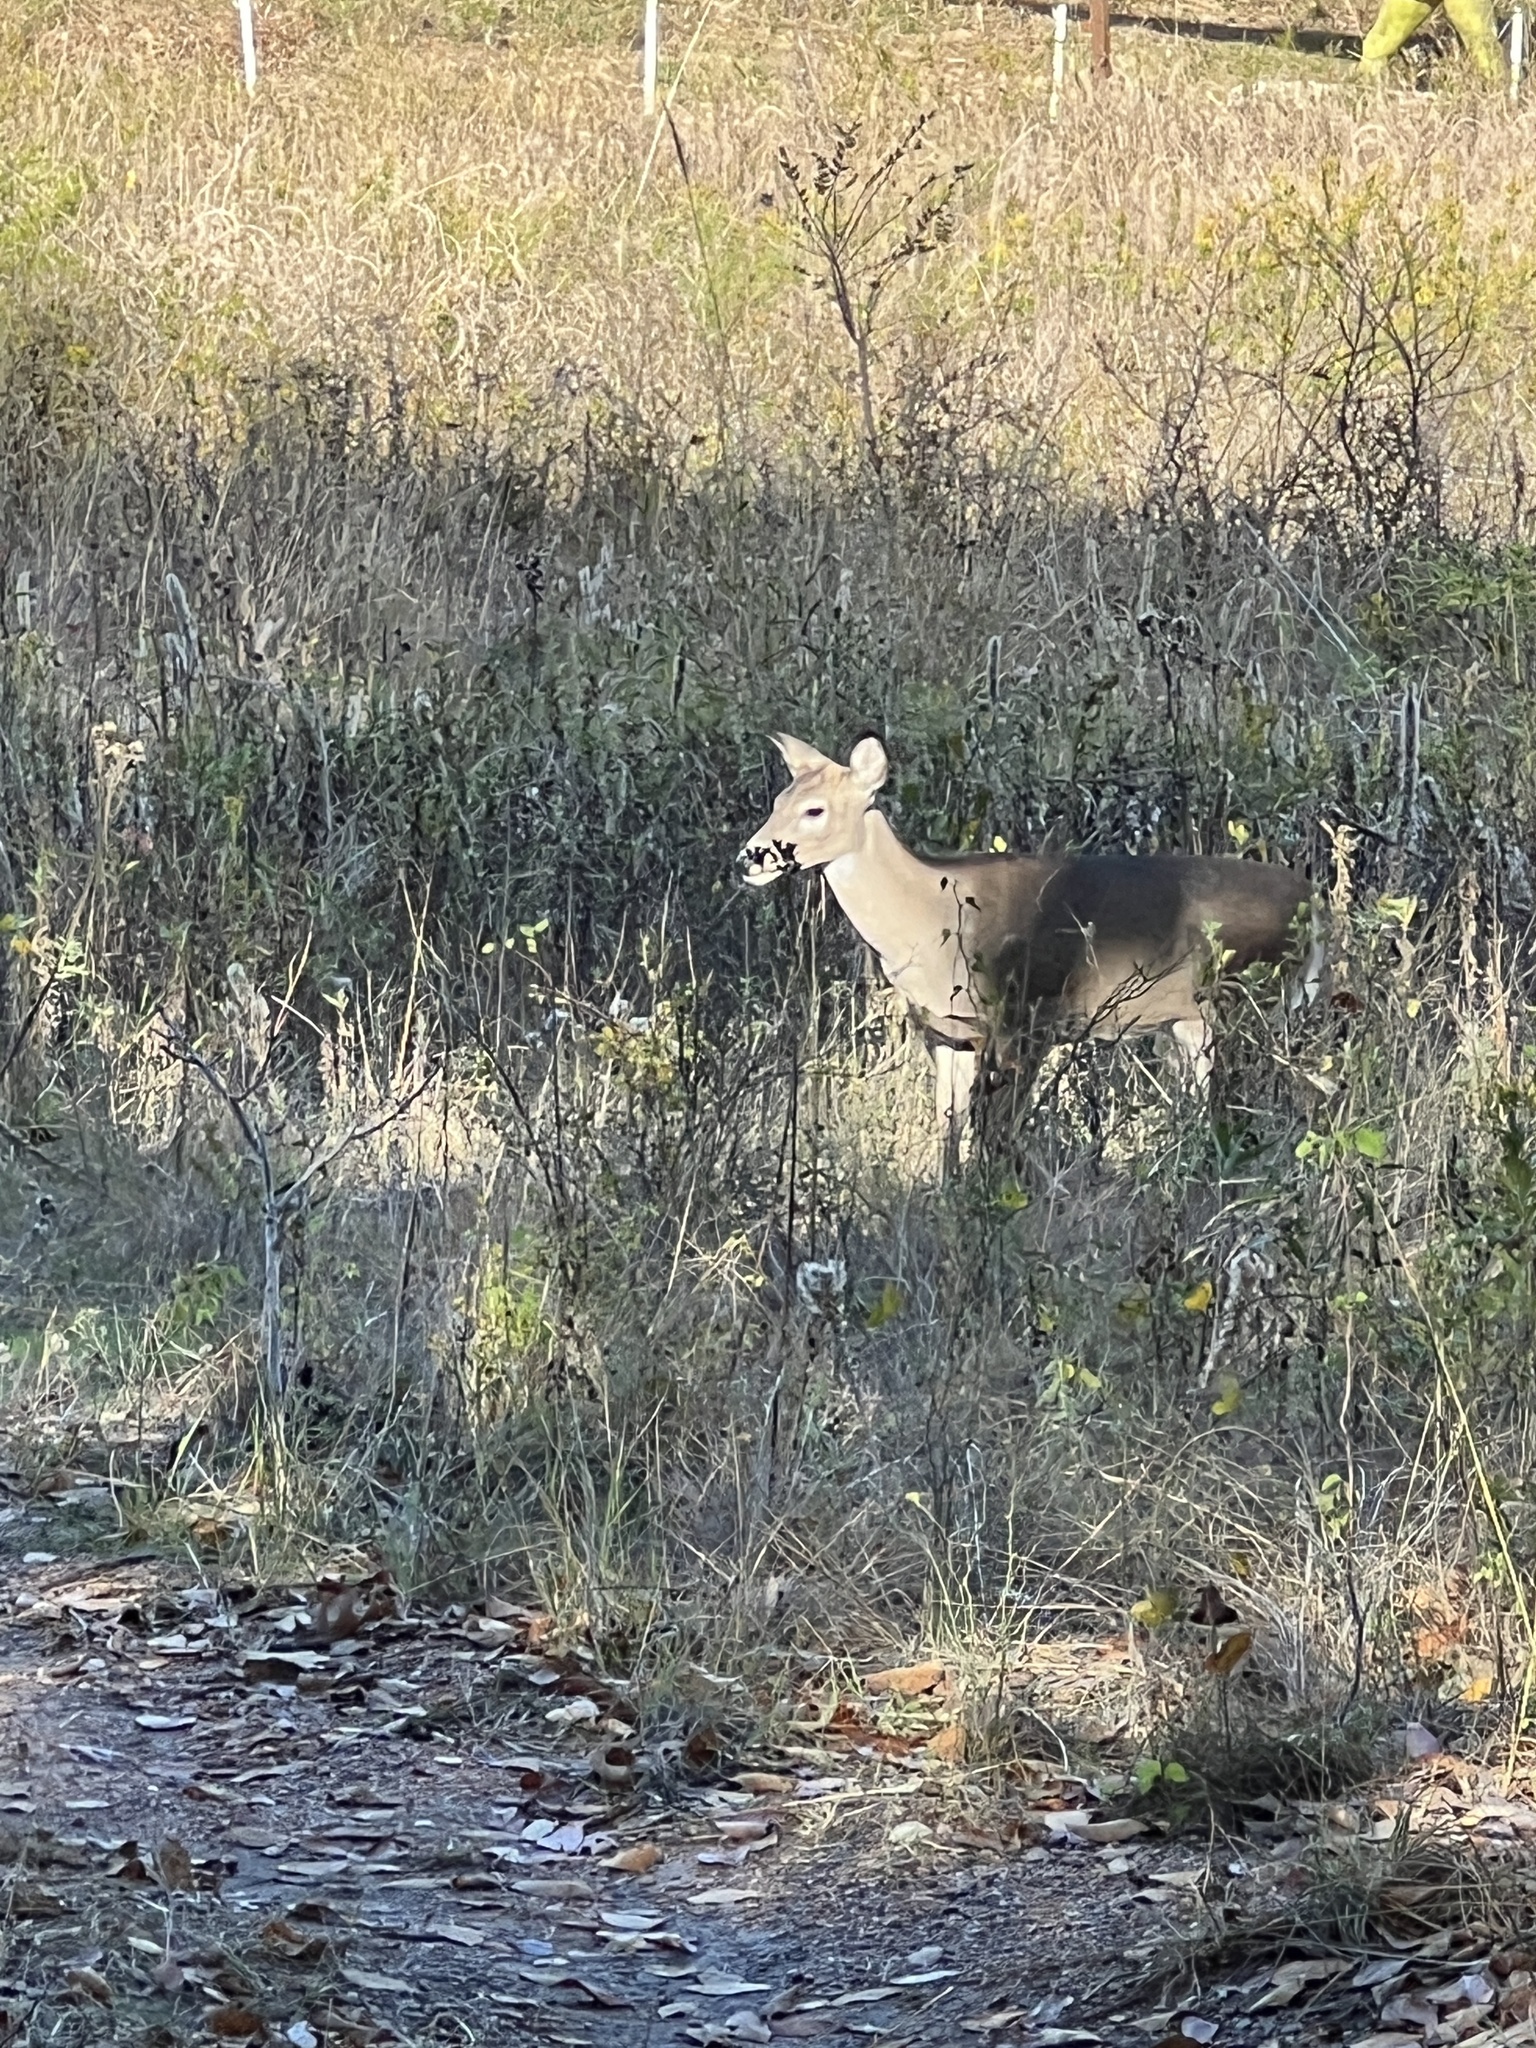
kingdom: Animalia
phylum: Chordata
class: Mammalia
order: Artiodactyla
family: Cervidae
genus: Odocoileus
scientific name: Odocoileus virginianus
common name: White-tailed deer
